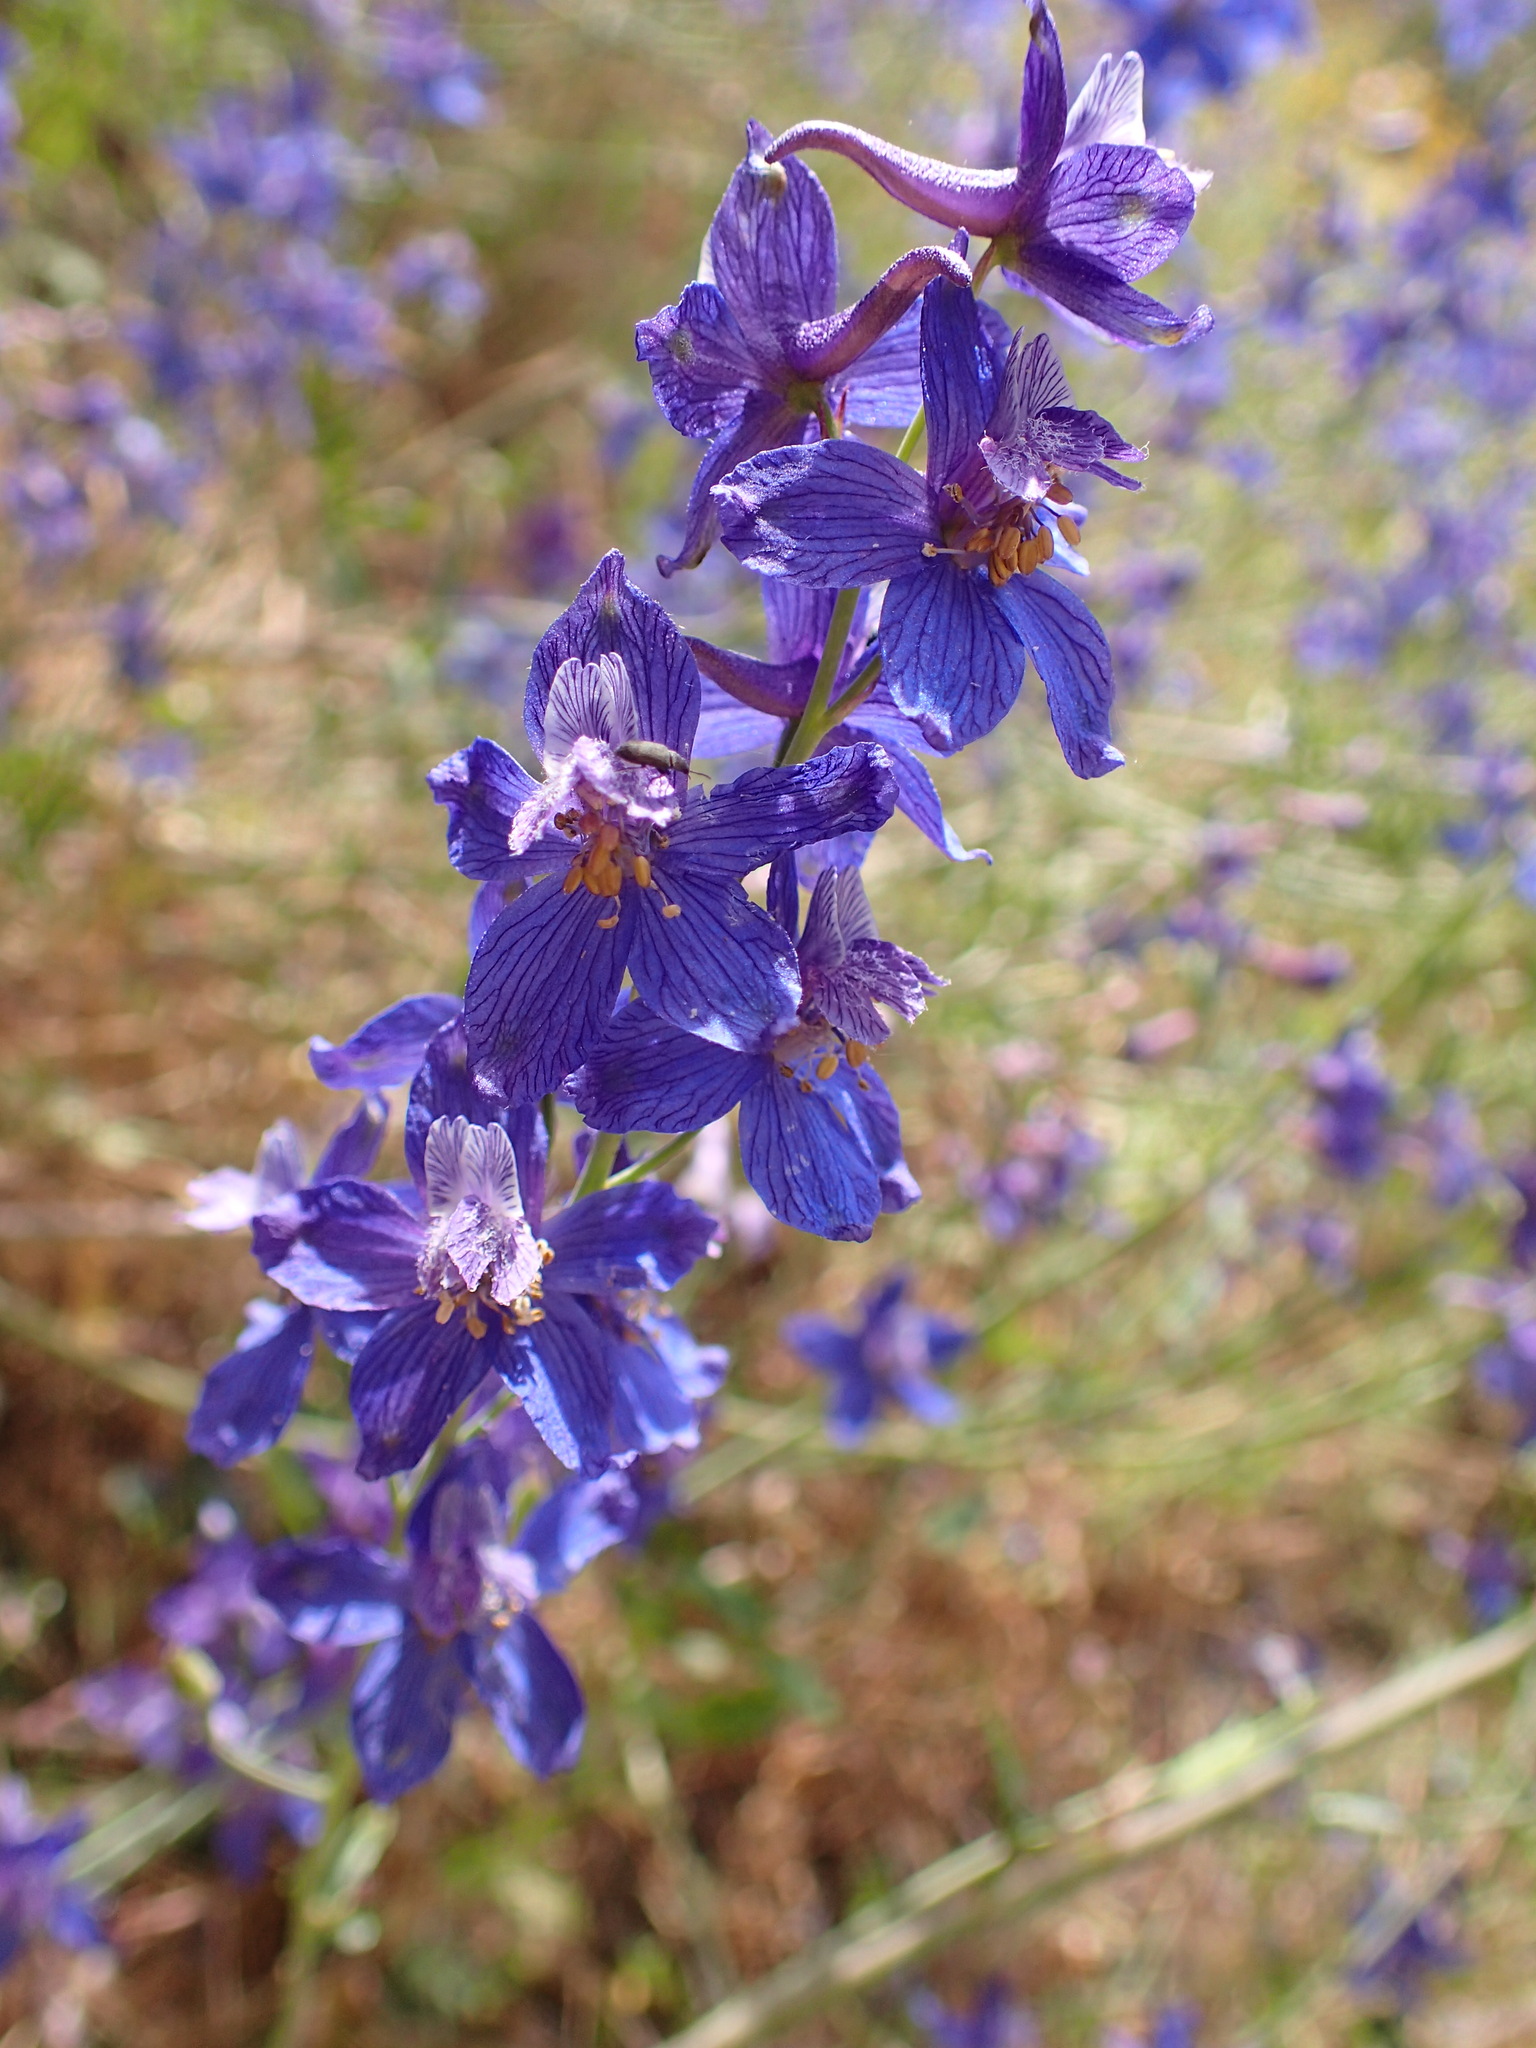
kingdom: Plantae
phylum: Tracheophyta
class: Magnoliopsida
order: Ranunculales
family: Ranunculaceae
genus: Delphinium
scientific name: Delphinium parryi
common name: Parry's larkspur
